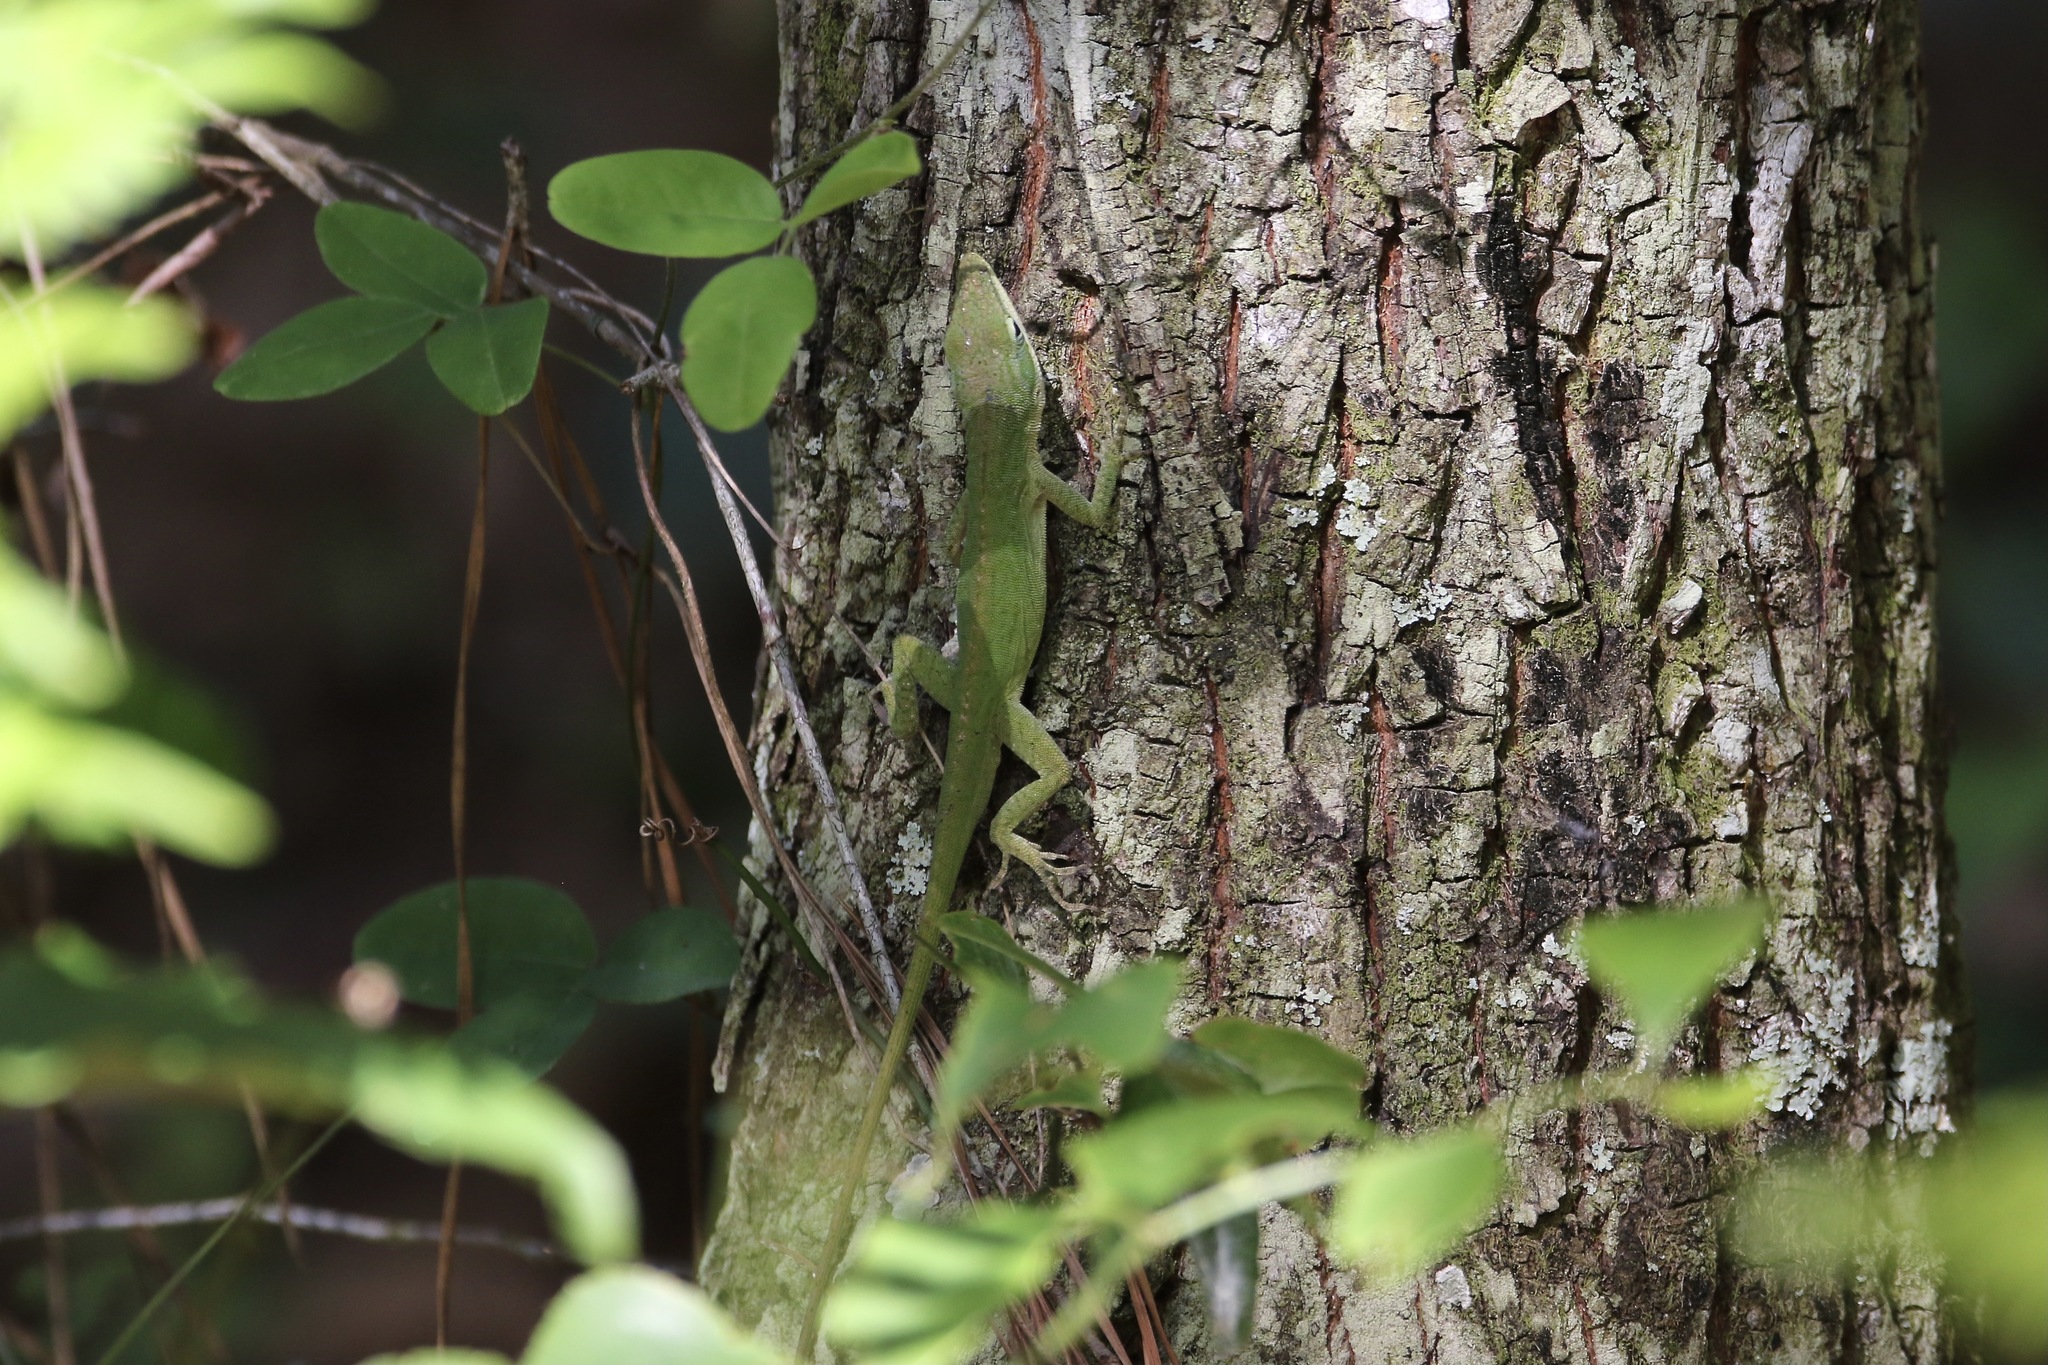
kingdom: Animalia
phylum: Chordata
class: Squamata
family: Dactyloidae
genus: Anolis
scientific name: Anolis carolinensis
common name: Green anole
